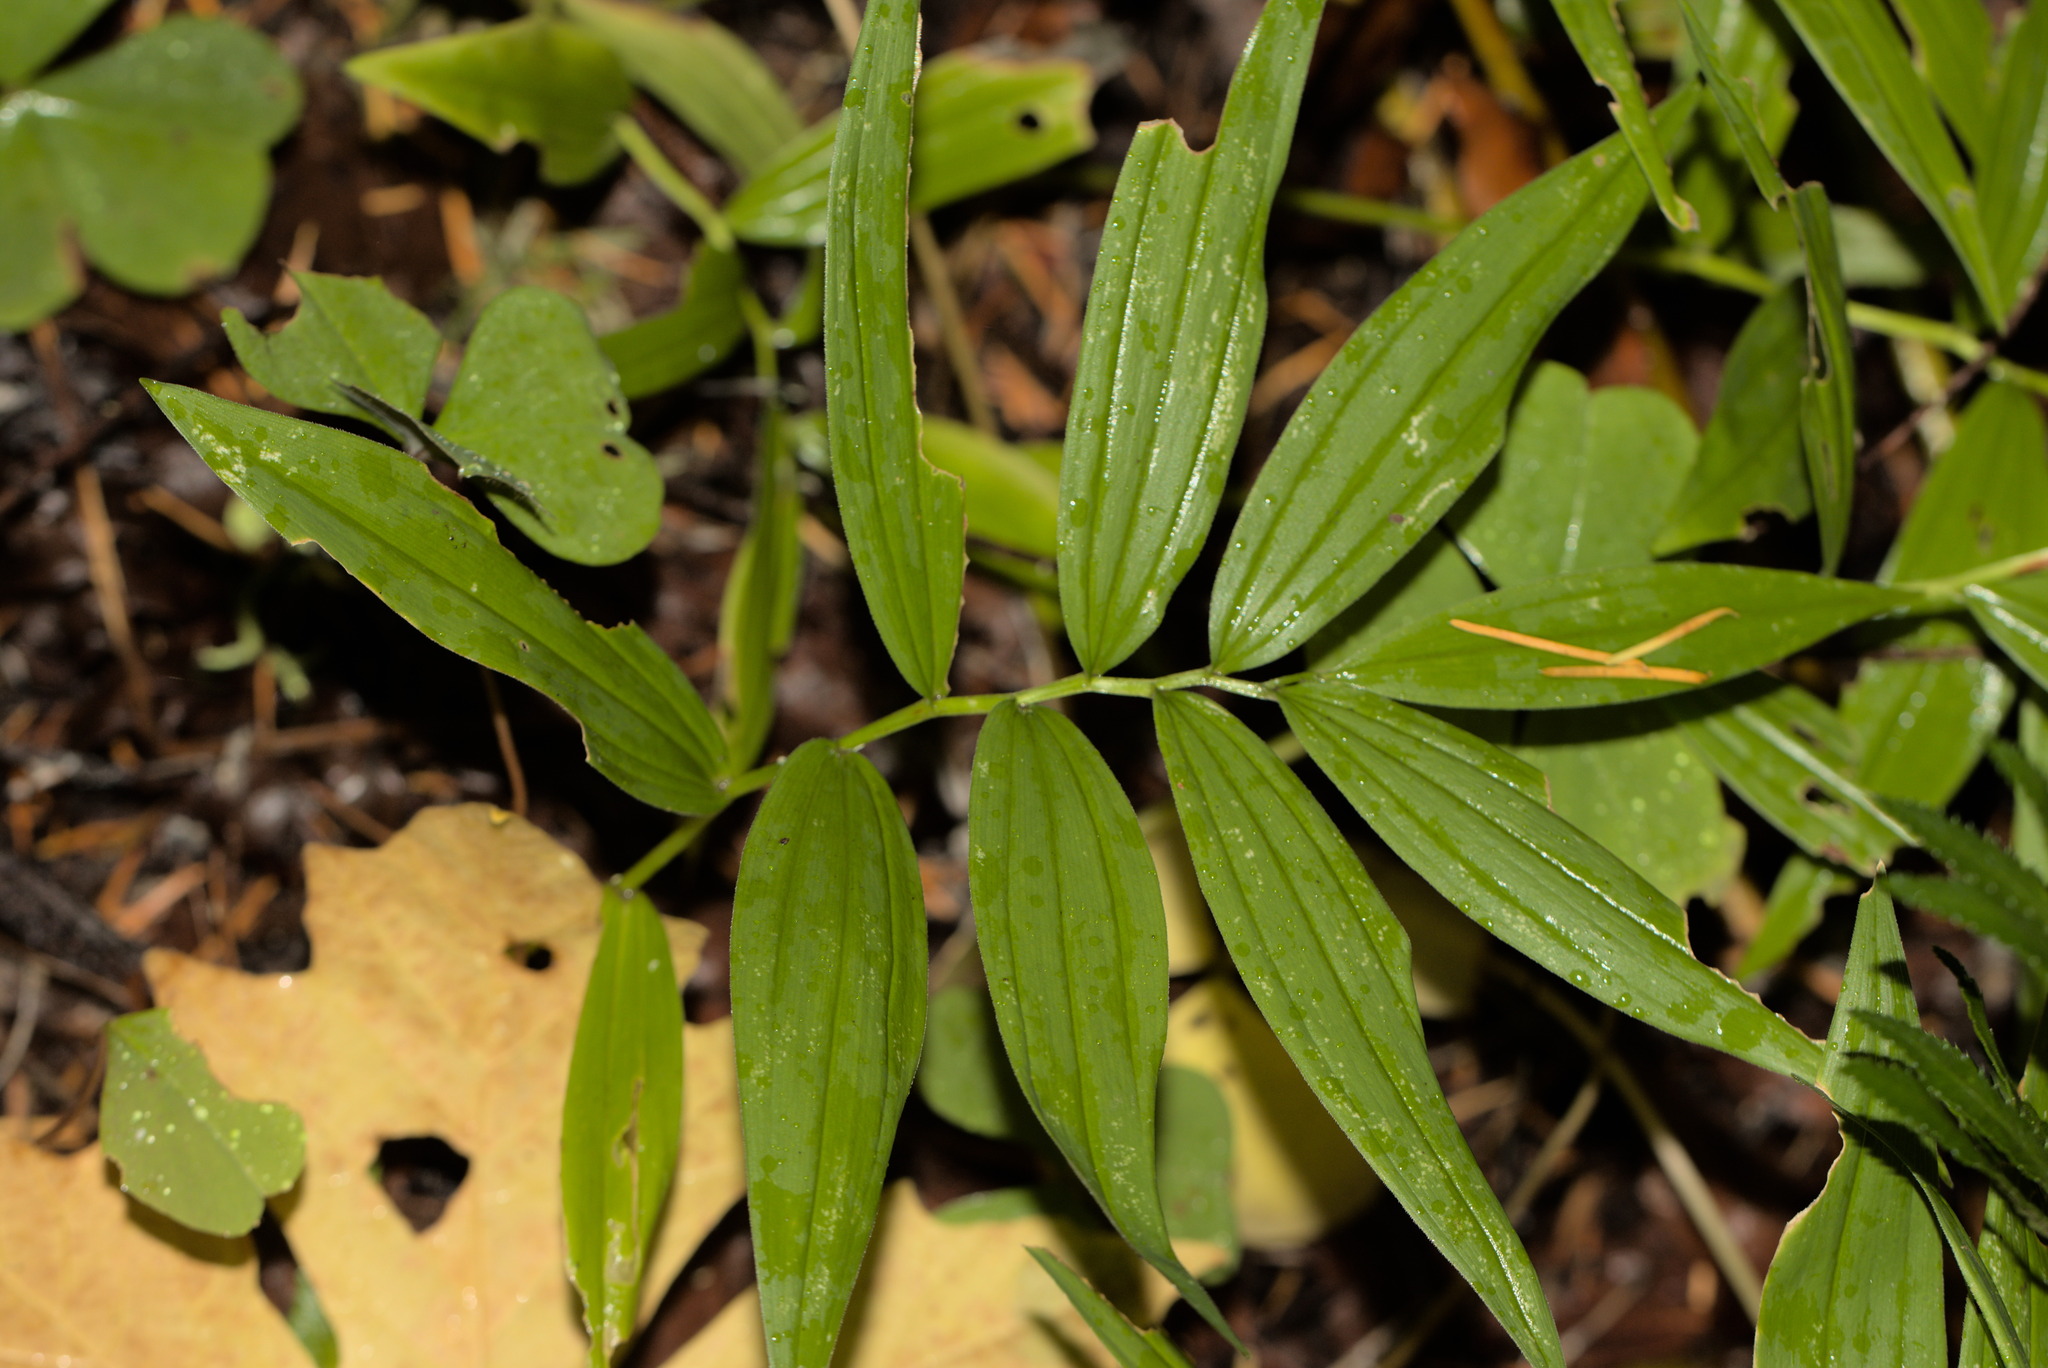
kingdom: Plantae
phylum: Tracheophyta
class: Liliopsida
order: Asparagales
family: Asparagaceae
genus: Maianthemum
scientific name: Maianthemum stellatum
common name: Little false solomon's seal
